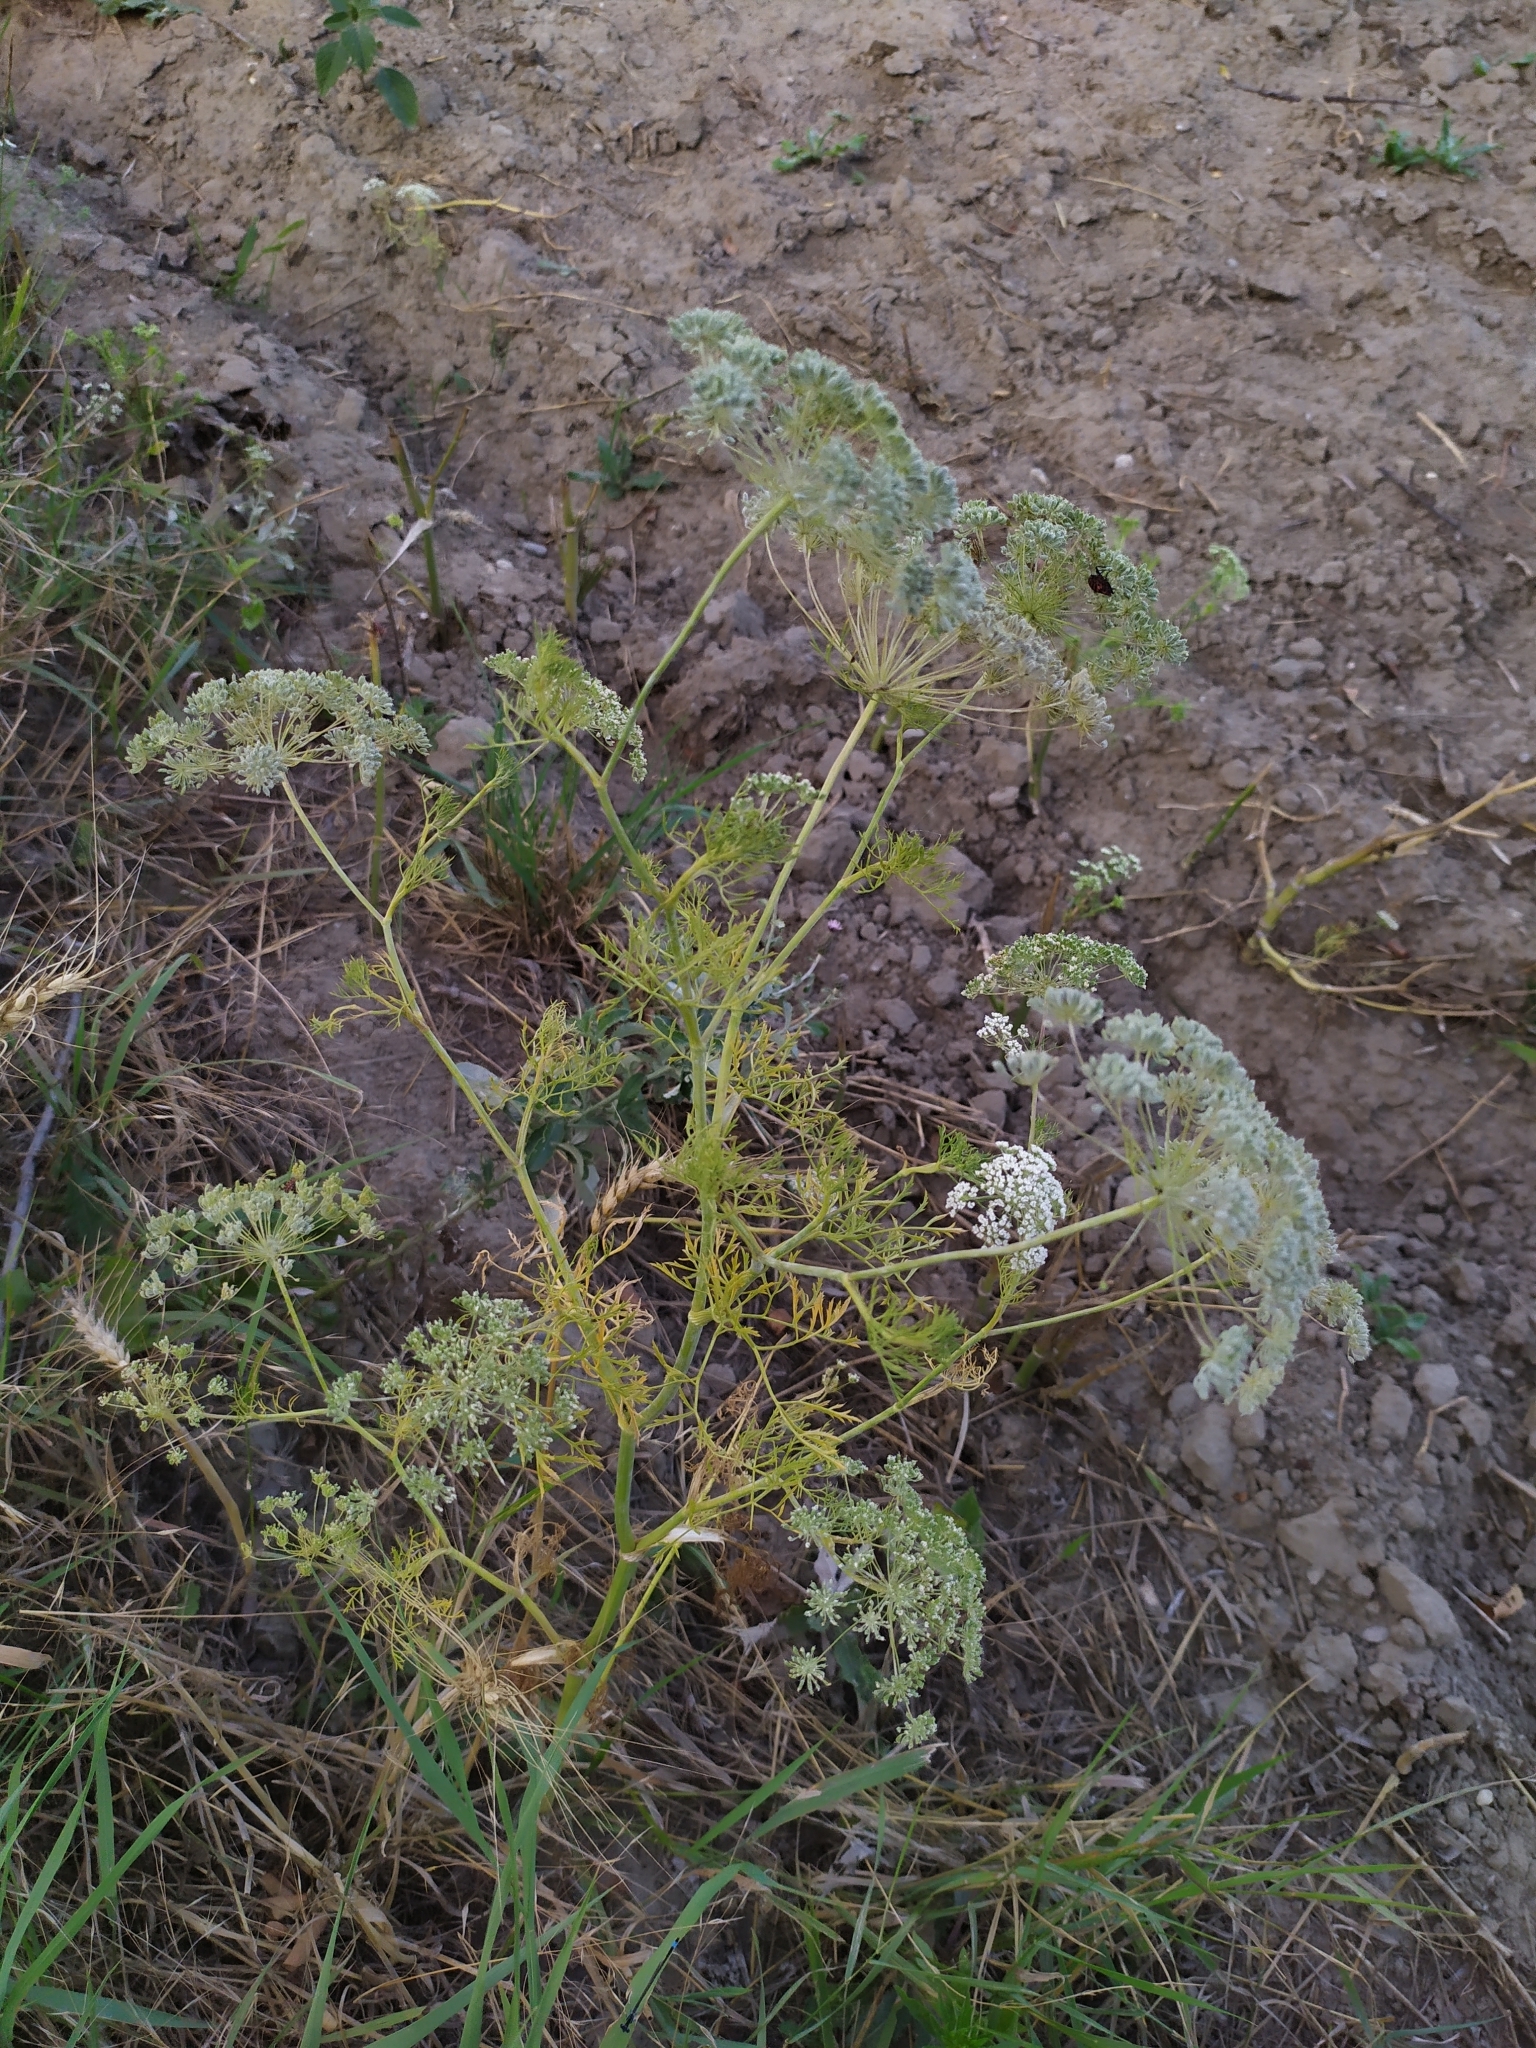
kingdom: Plantae
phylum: Tracheophyta
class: Magnoliopsida
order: Apiales
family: Apiaceae
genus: Ammi
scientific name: Ammi majus
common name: Bullwort
